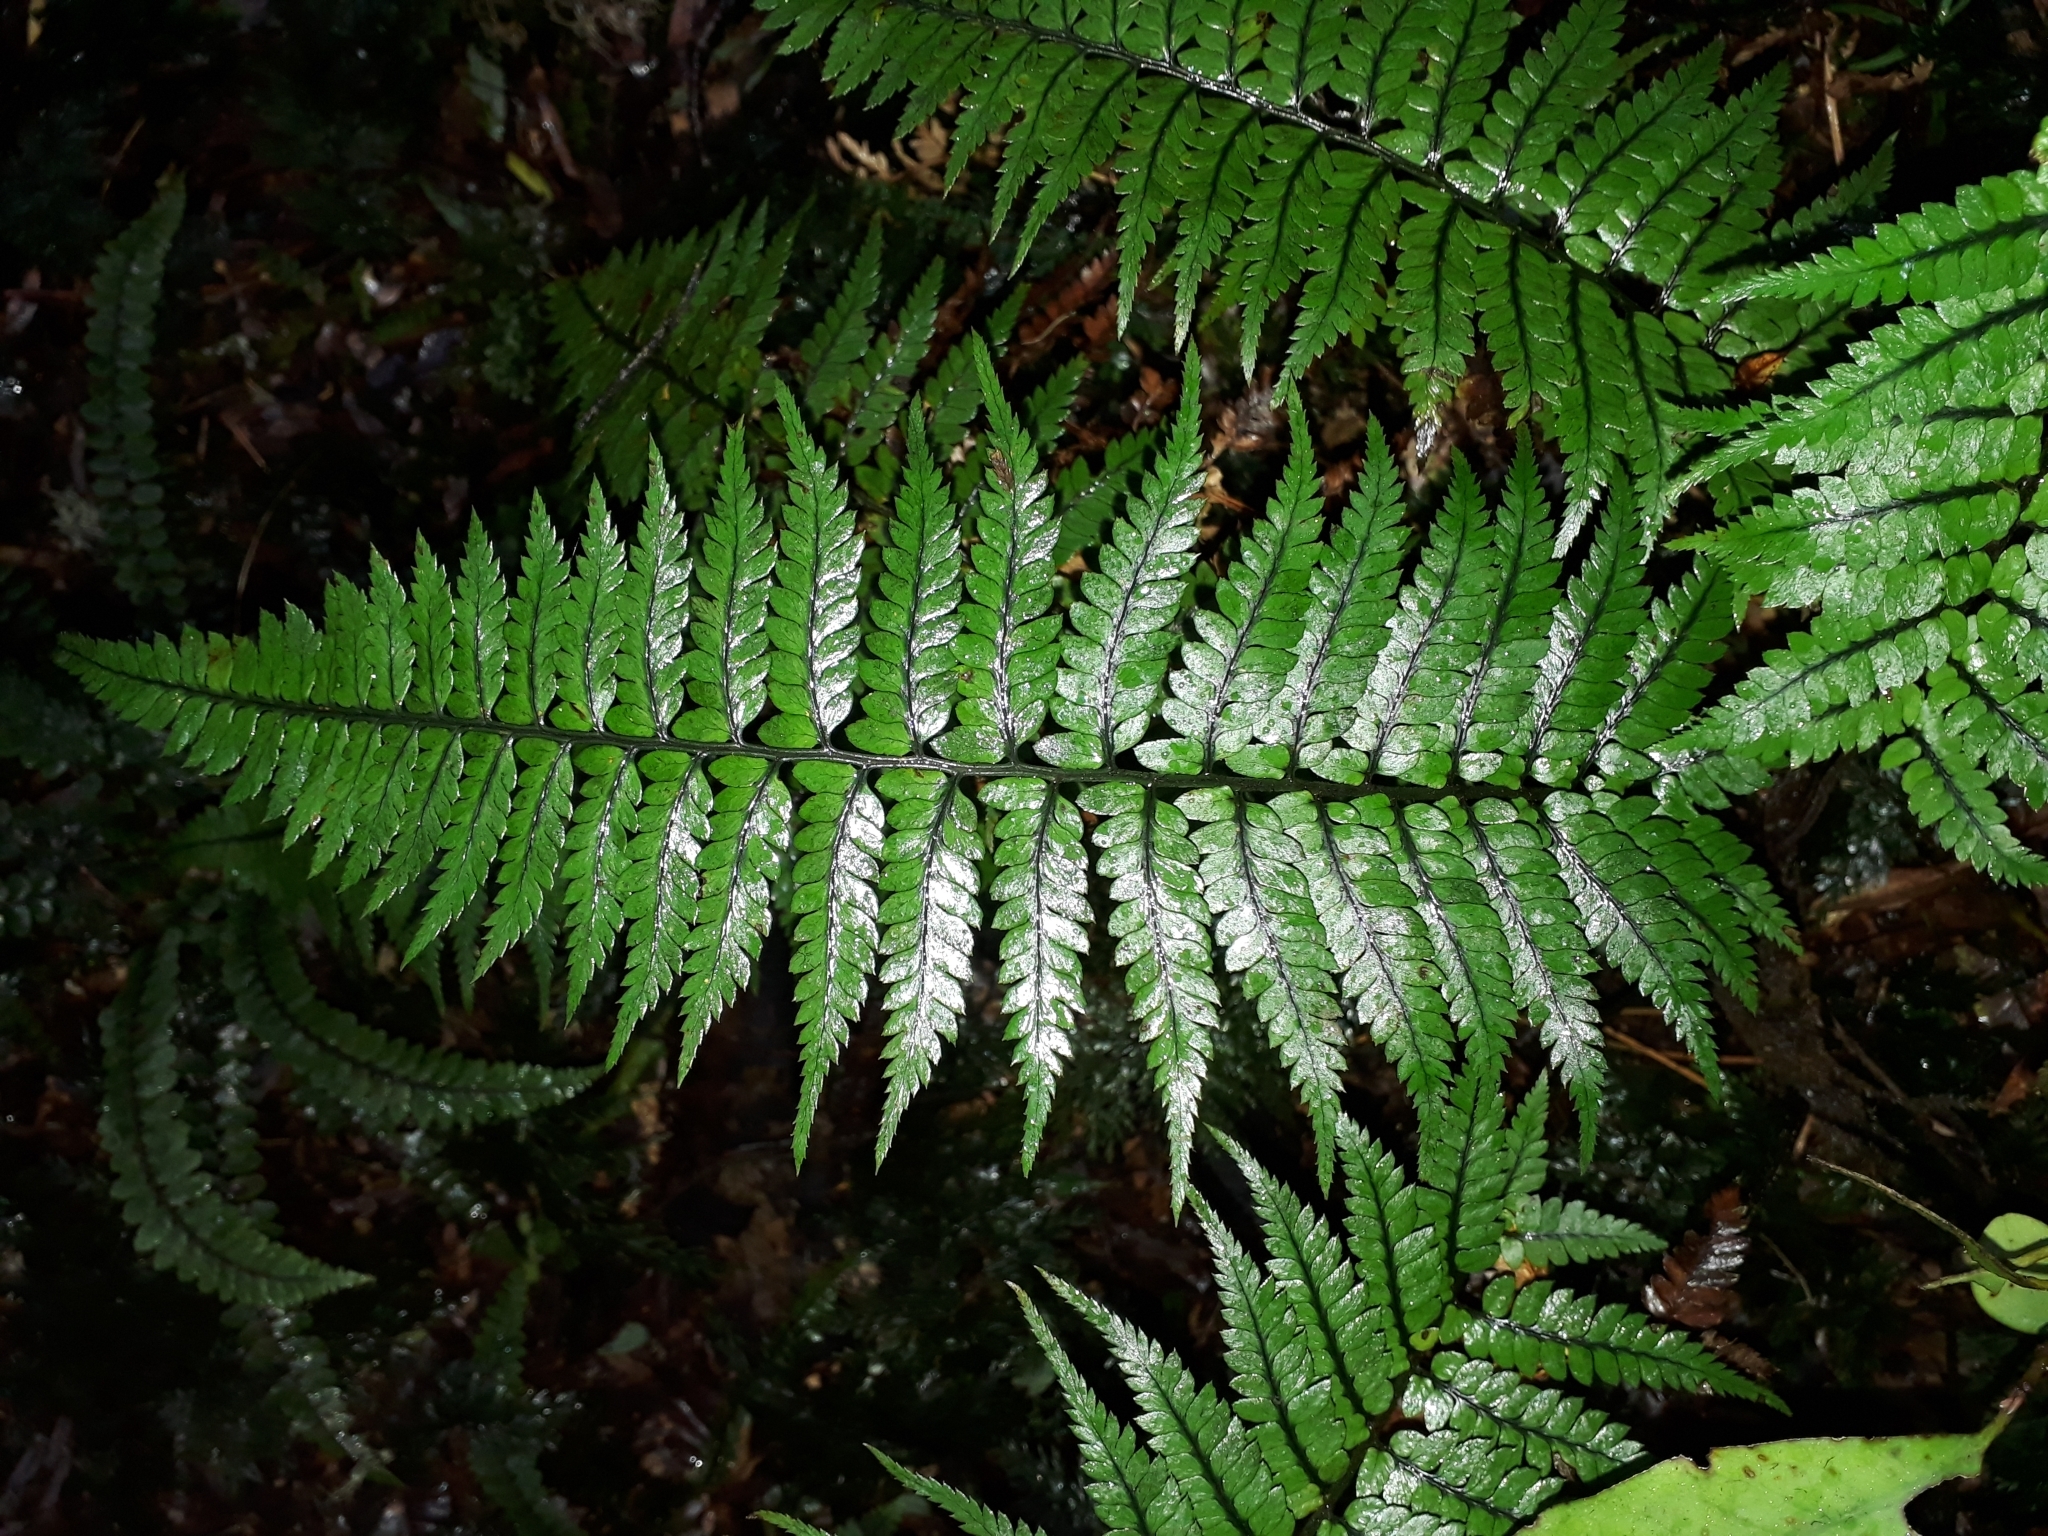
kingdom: Plantae
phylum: Tracheophyta
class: Polypodiopsida
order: Polypodiales
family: Dryopteridaceae
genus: Polystichum
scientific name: Polystichum wawranum
